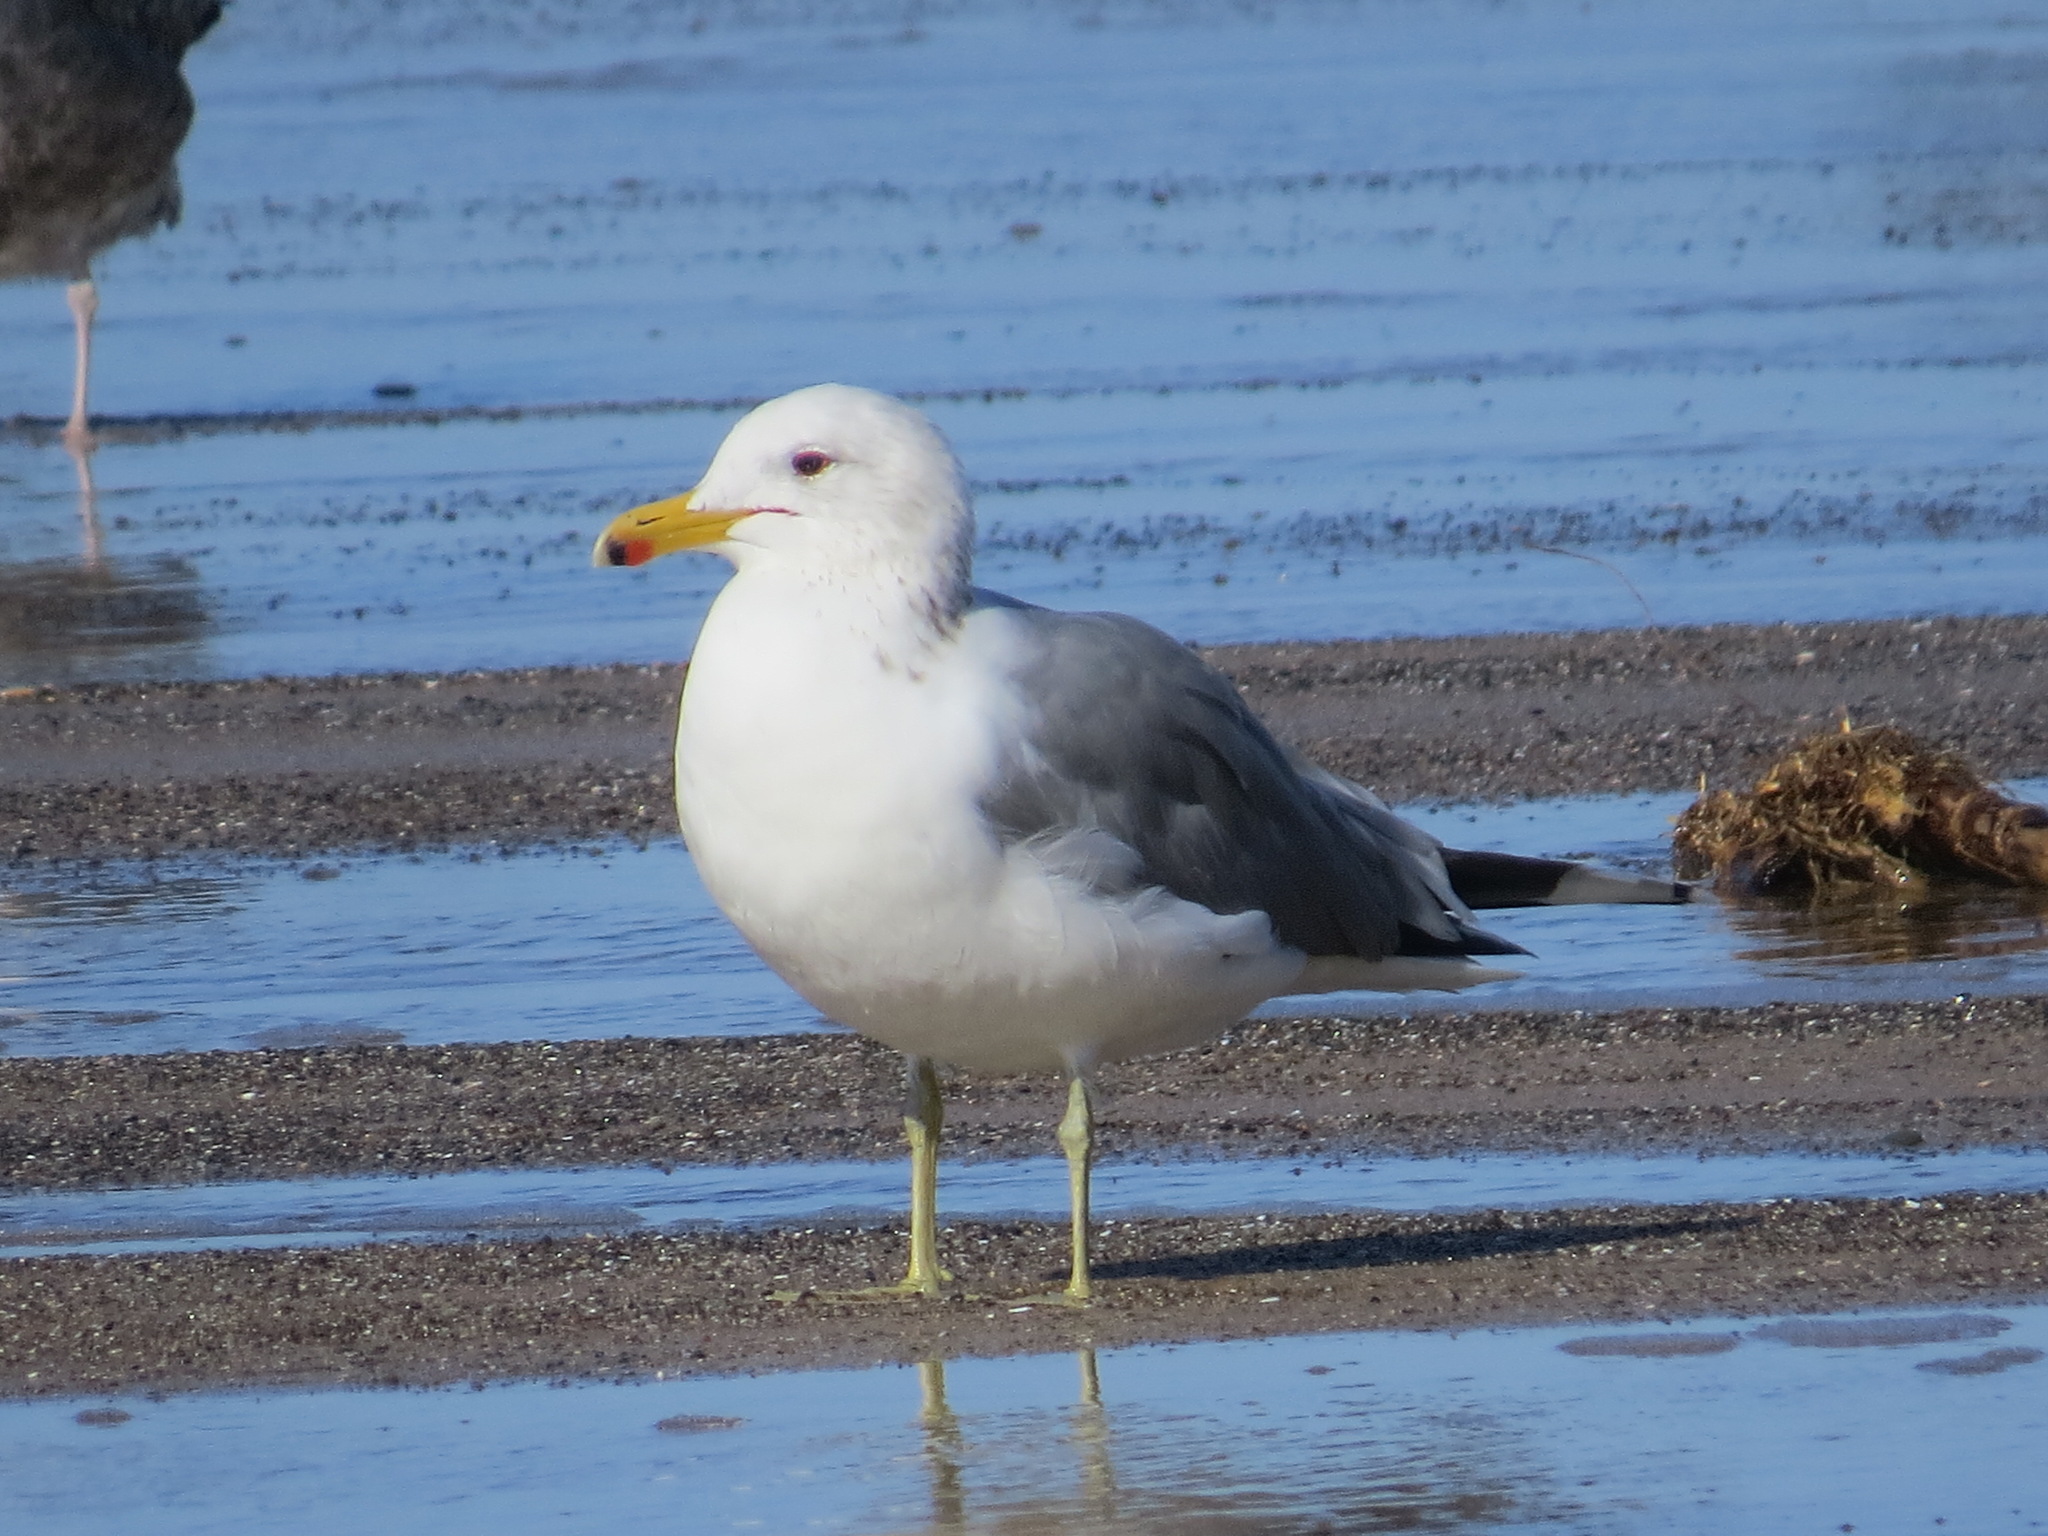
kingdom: Animalia
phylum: Chordata
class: Aves
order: Charadriiformes
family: Laridae
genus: Larus
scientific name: Larus californicus
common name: California gull
